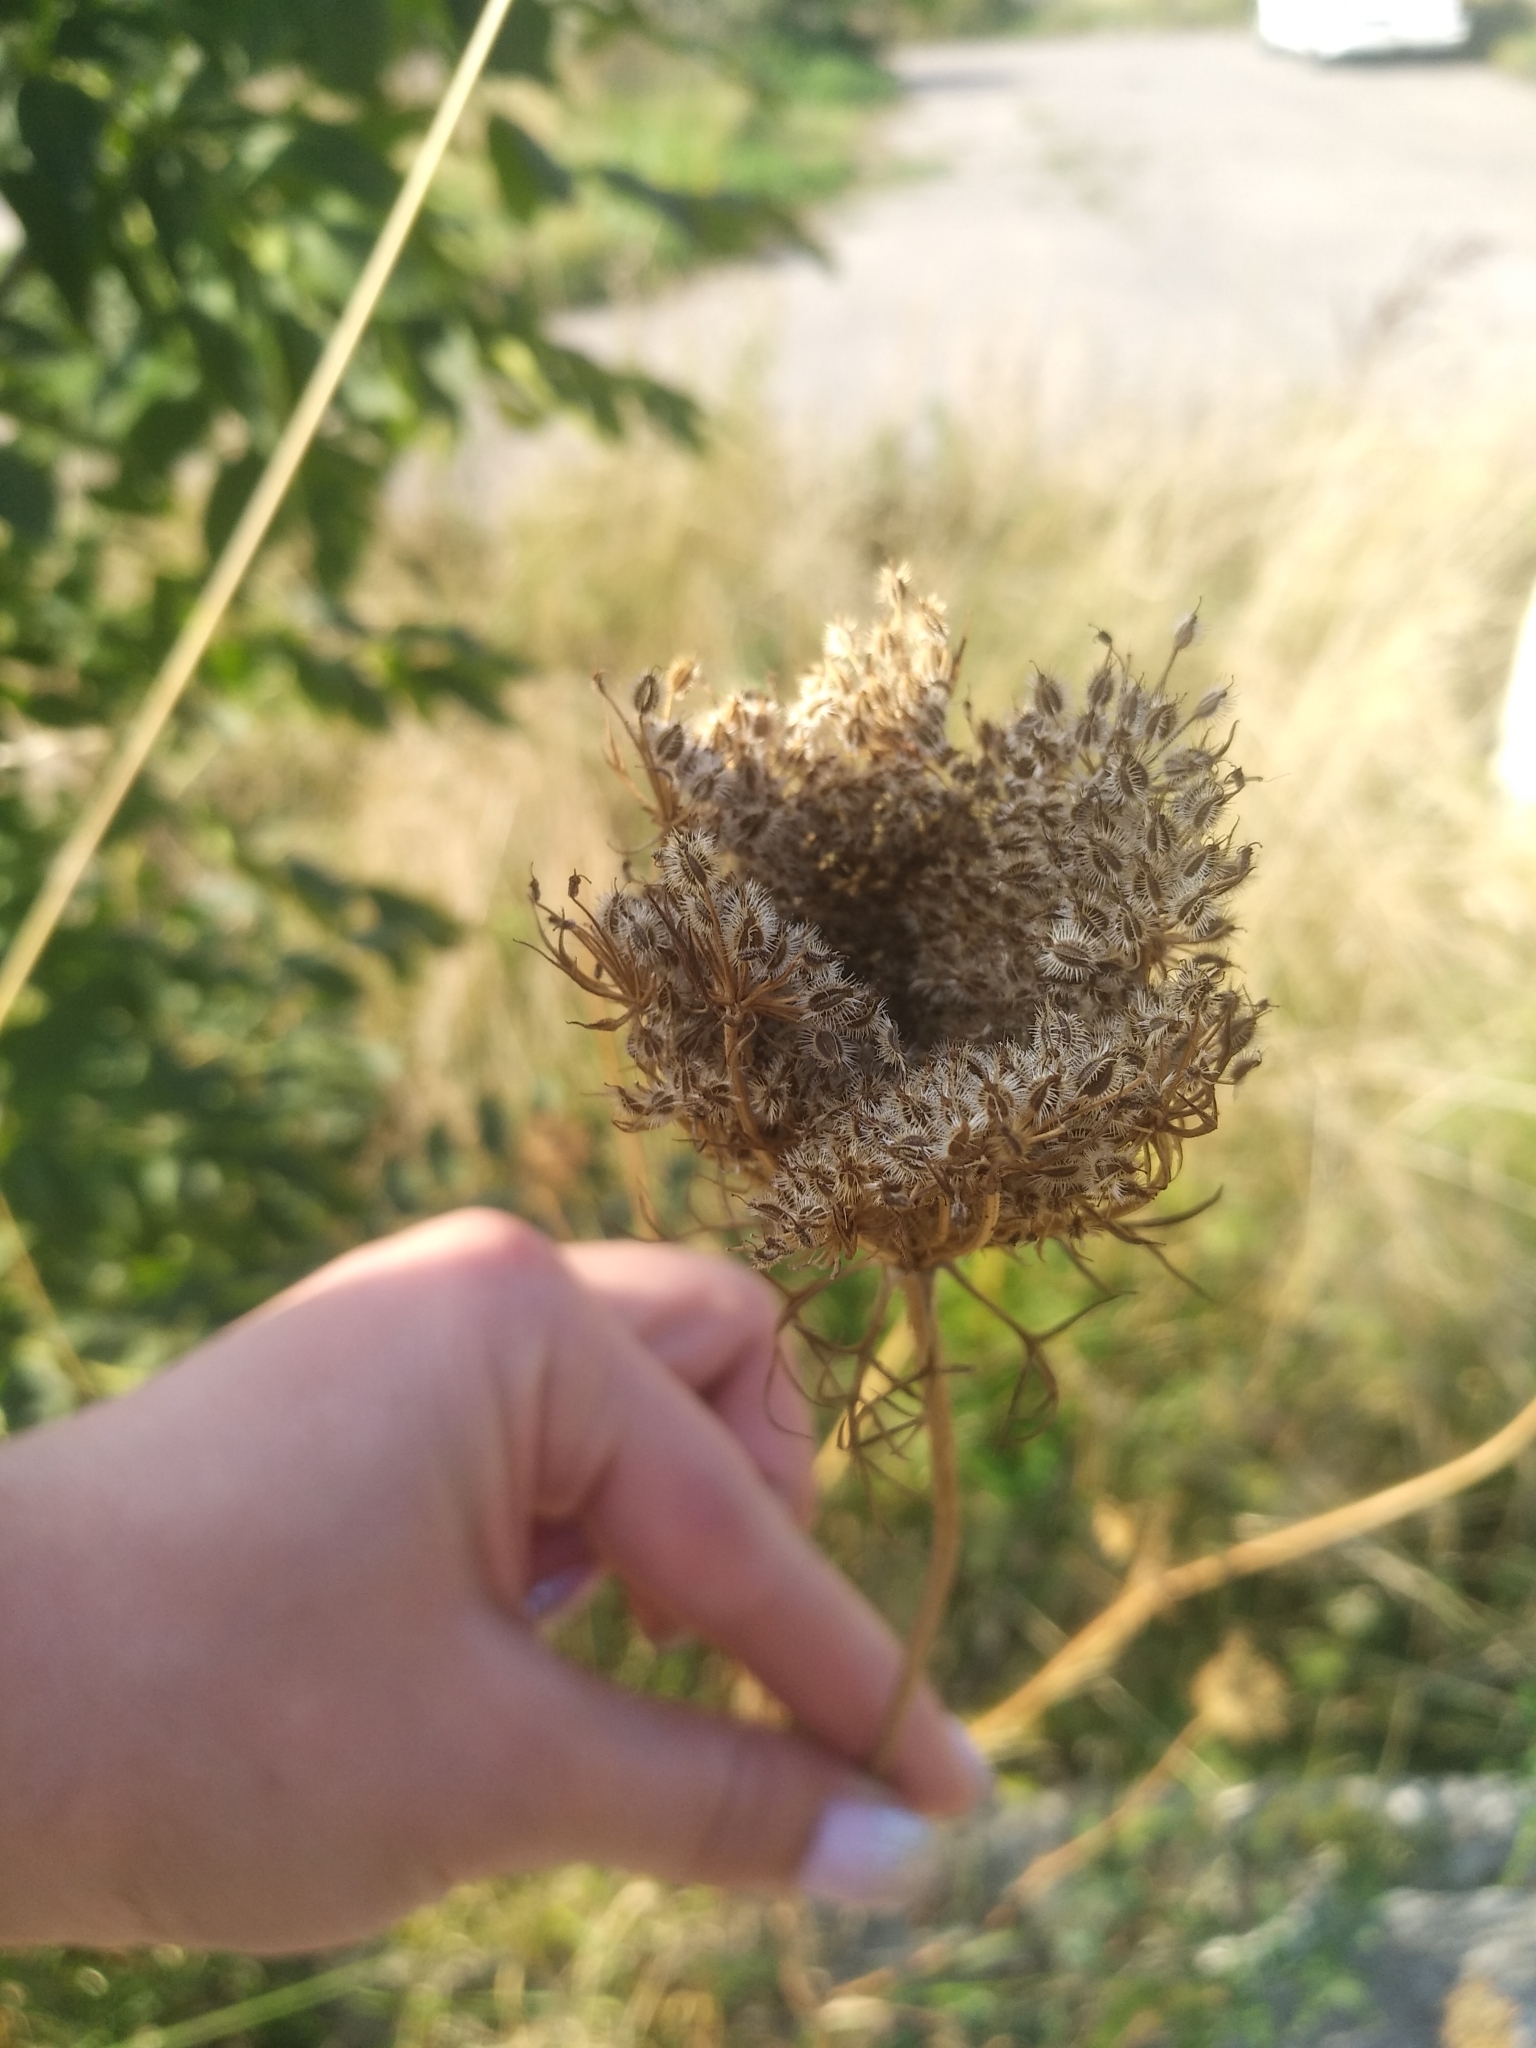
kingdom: Plantae
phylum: Tracheophyta
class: Magnoliopsida
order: Apiales
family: Apiaceae
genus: Daucus
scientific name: Daucus carota
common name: Wild carrot
